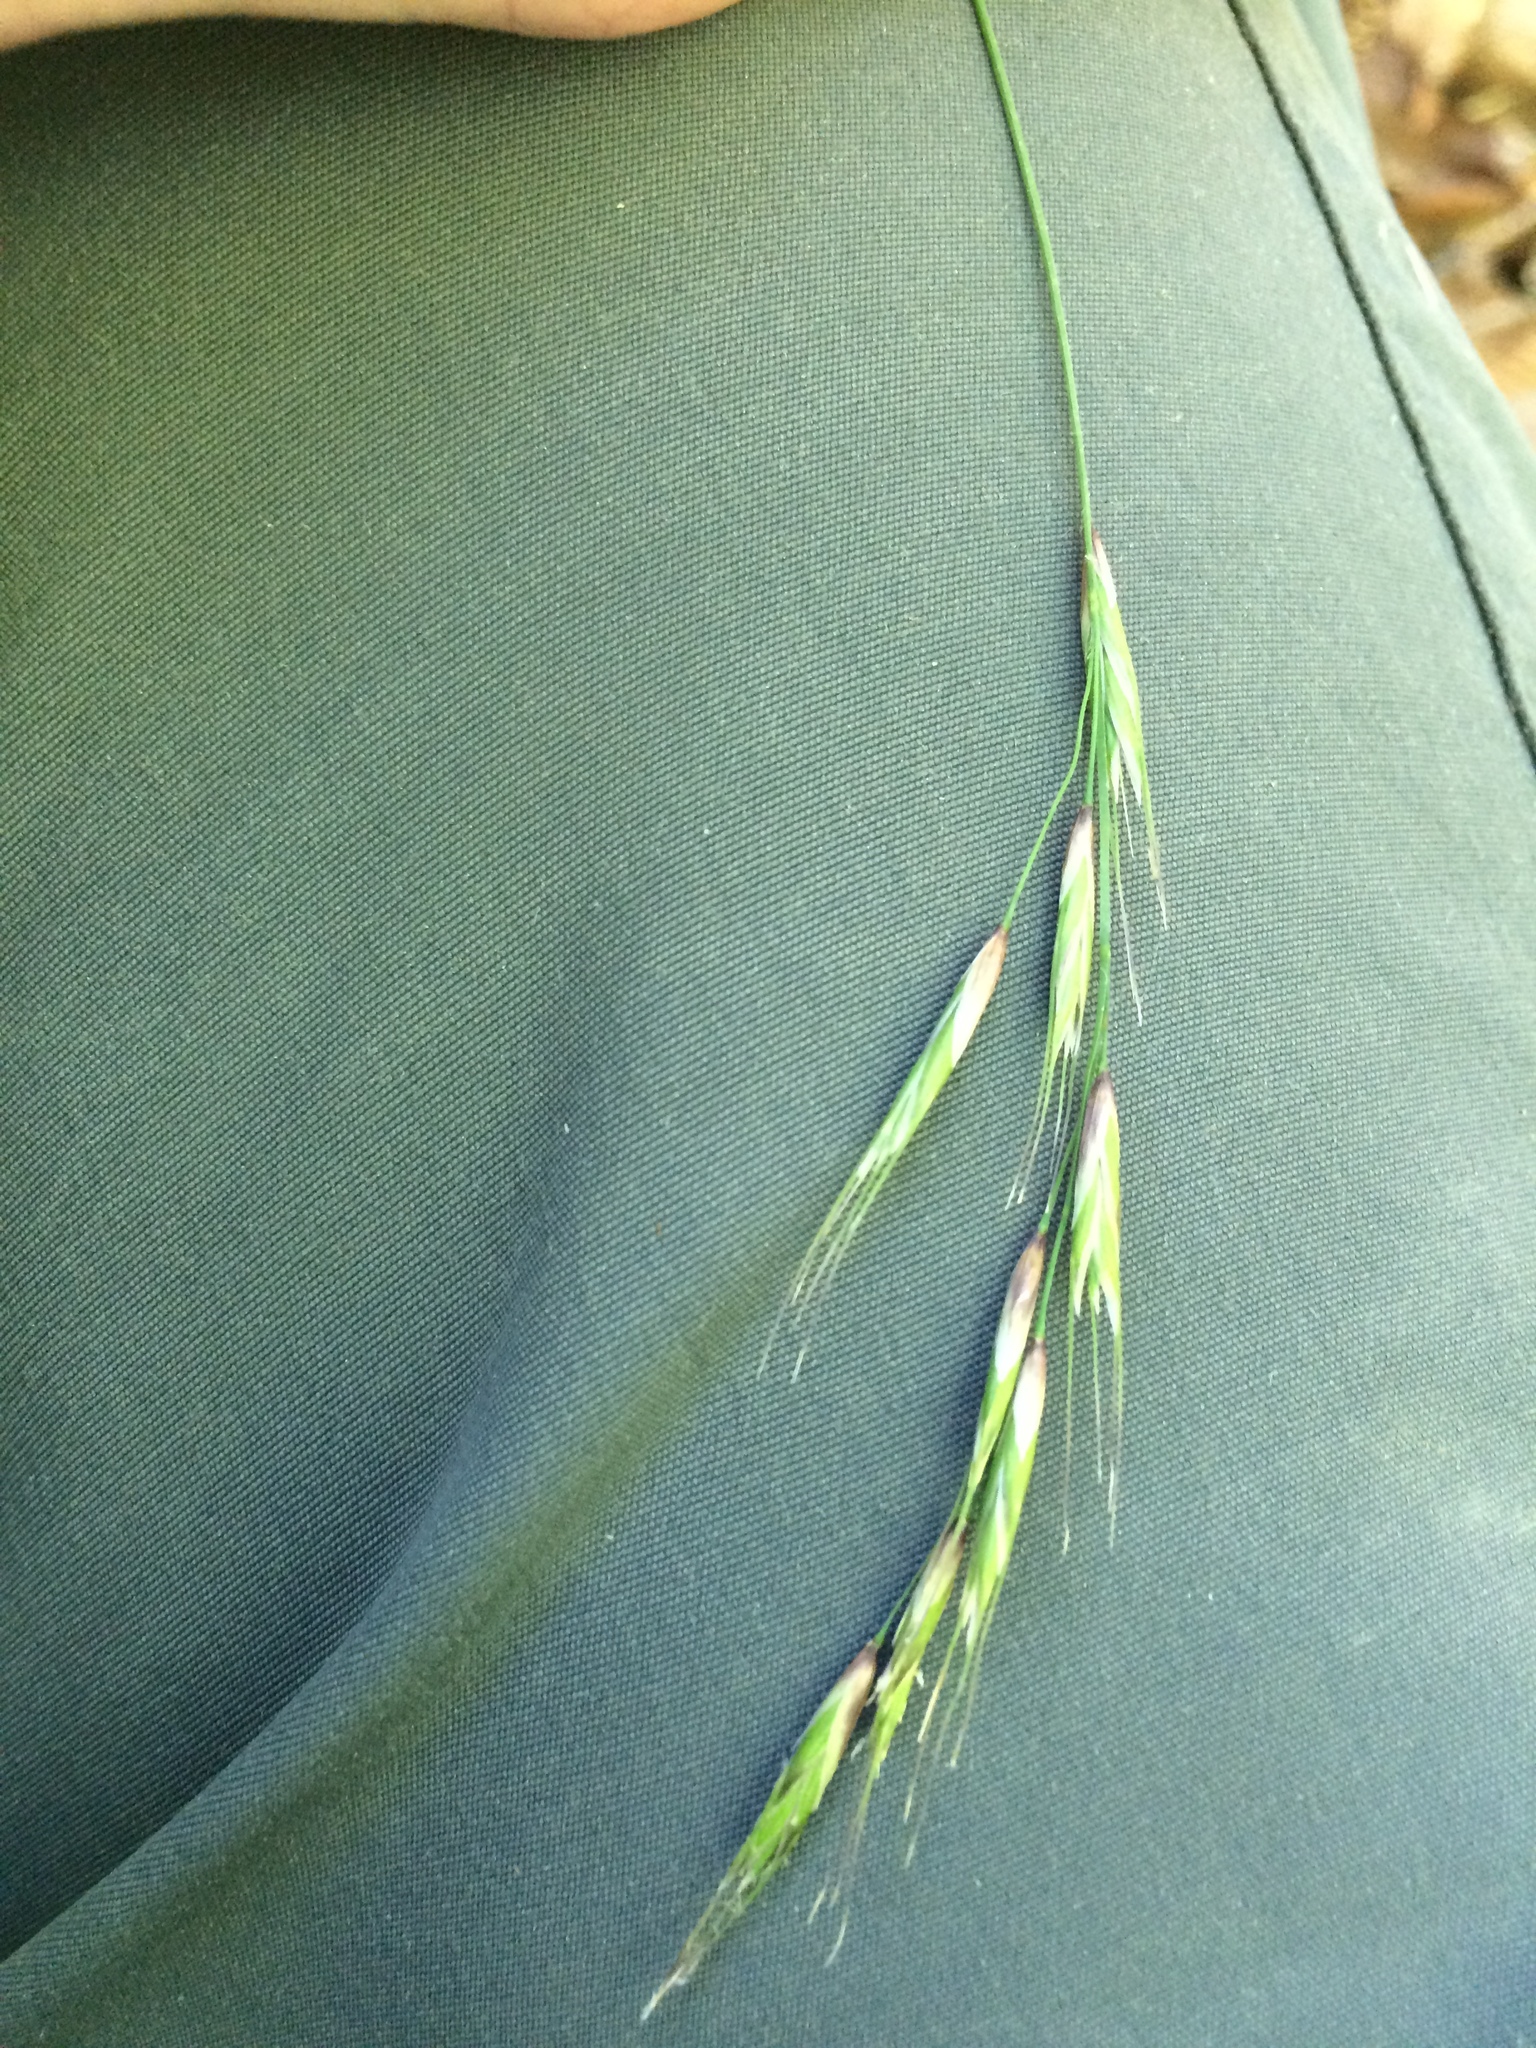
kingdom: Plantae
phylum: Tracheophyta
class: Liliopsida
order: Poales
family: Poaceae
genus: Schizachne
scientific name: Schizachne purpurascens
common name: False melic
